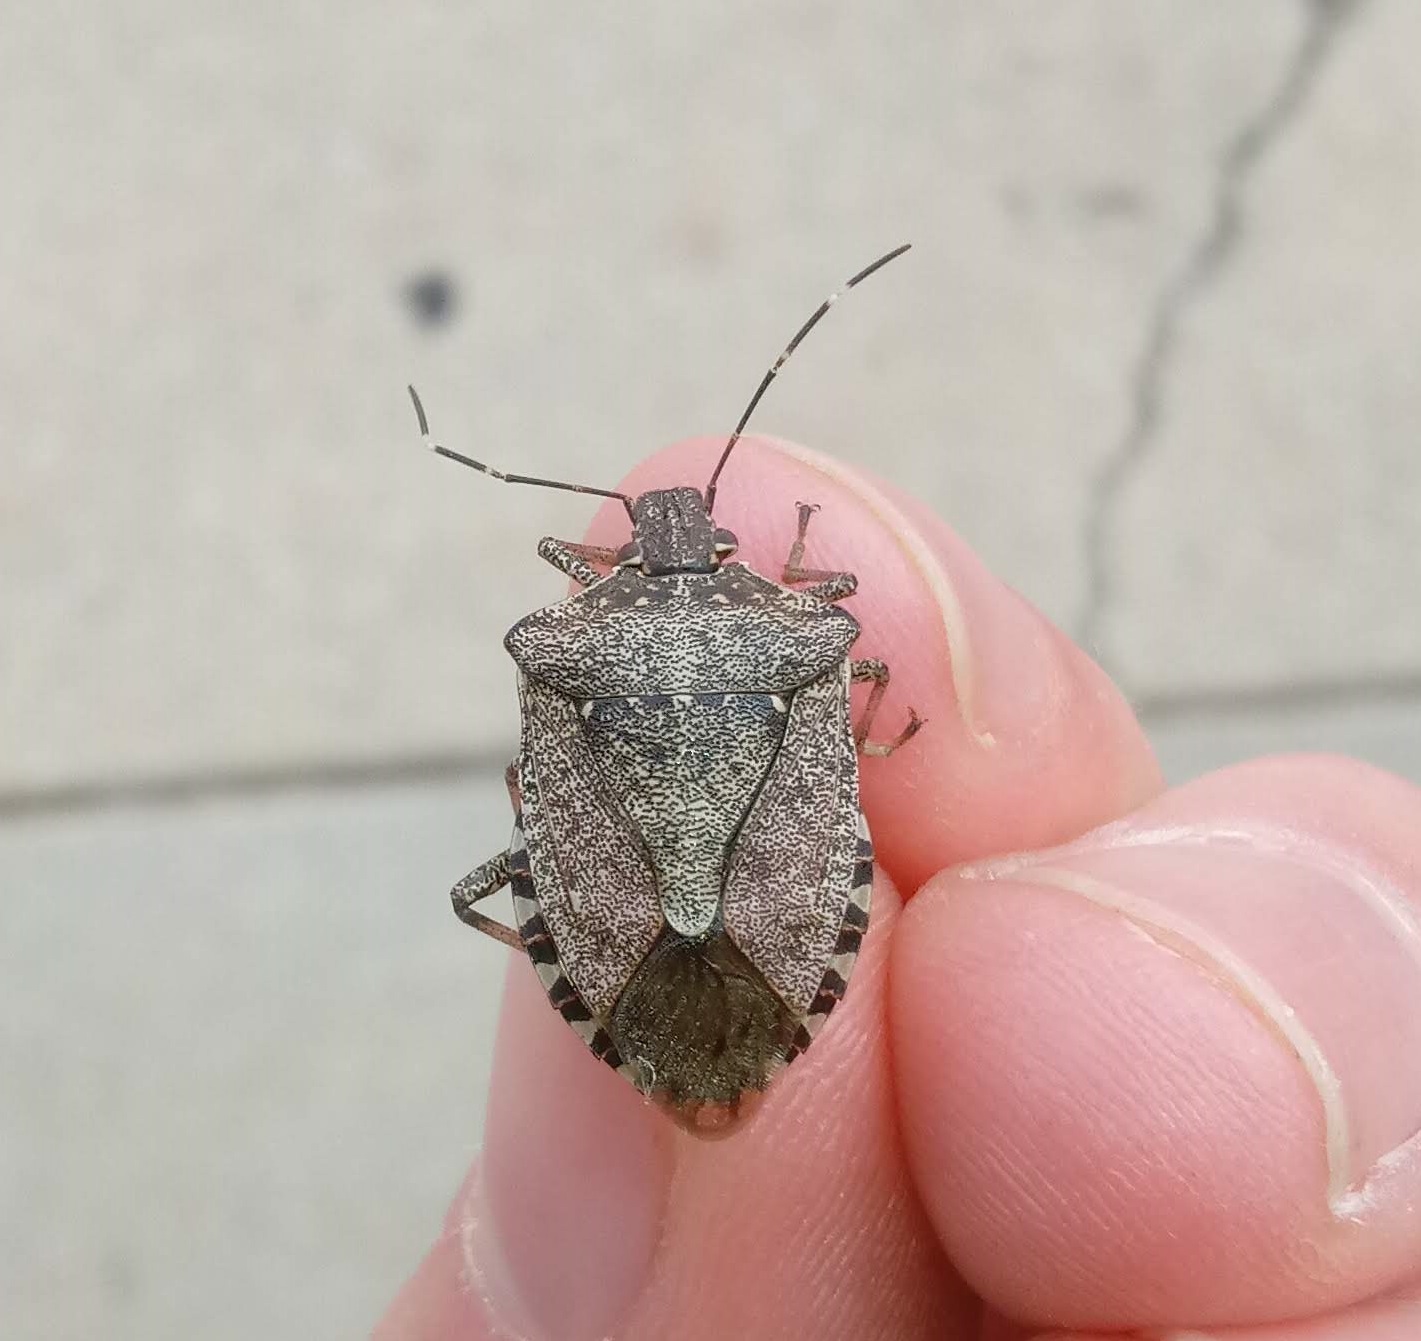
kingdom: Animalia
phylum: Arthropoda
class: Insecta
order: Hemiptera
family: Pentatomidae
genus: Halyomorpha
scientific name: Halyomorpha halys
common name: Brown marmorated stink bug
